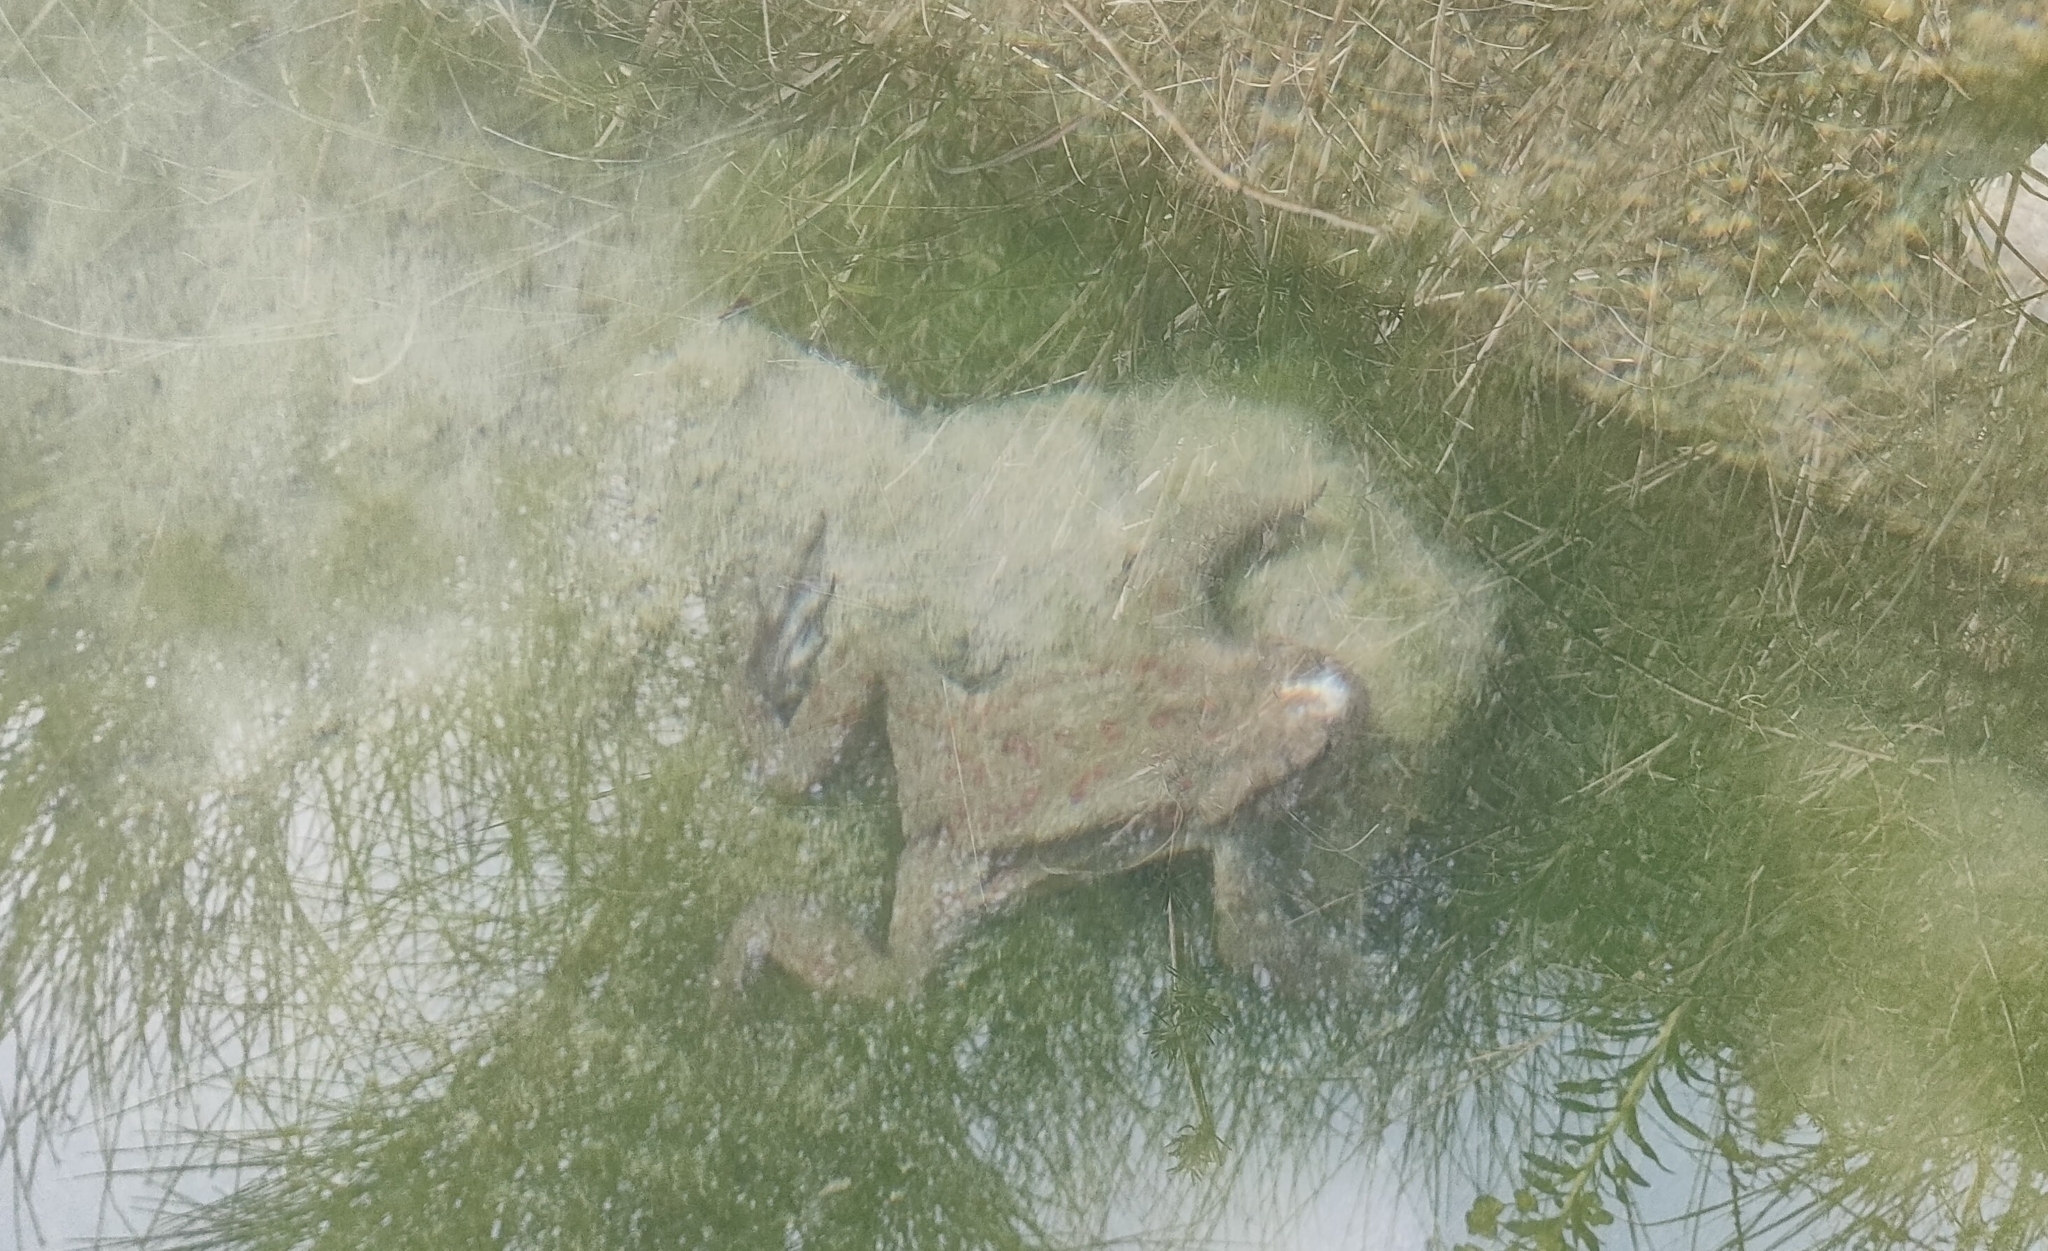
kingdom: Animalia
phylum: Chordata
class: Amphibia
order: Anura
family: Bufonidae
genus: Bufo
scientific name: Bufo bufo
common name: Common toad
